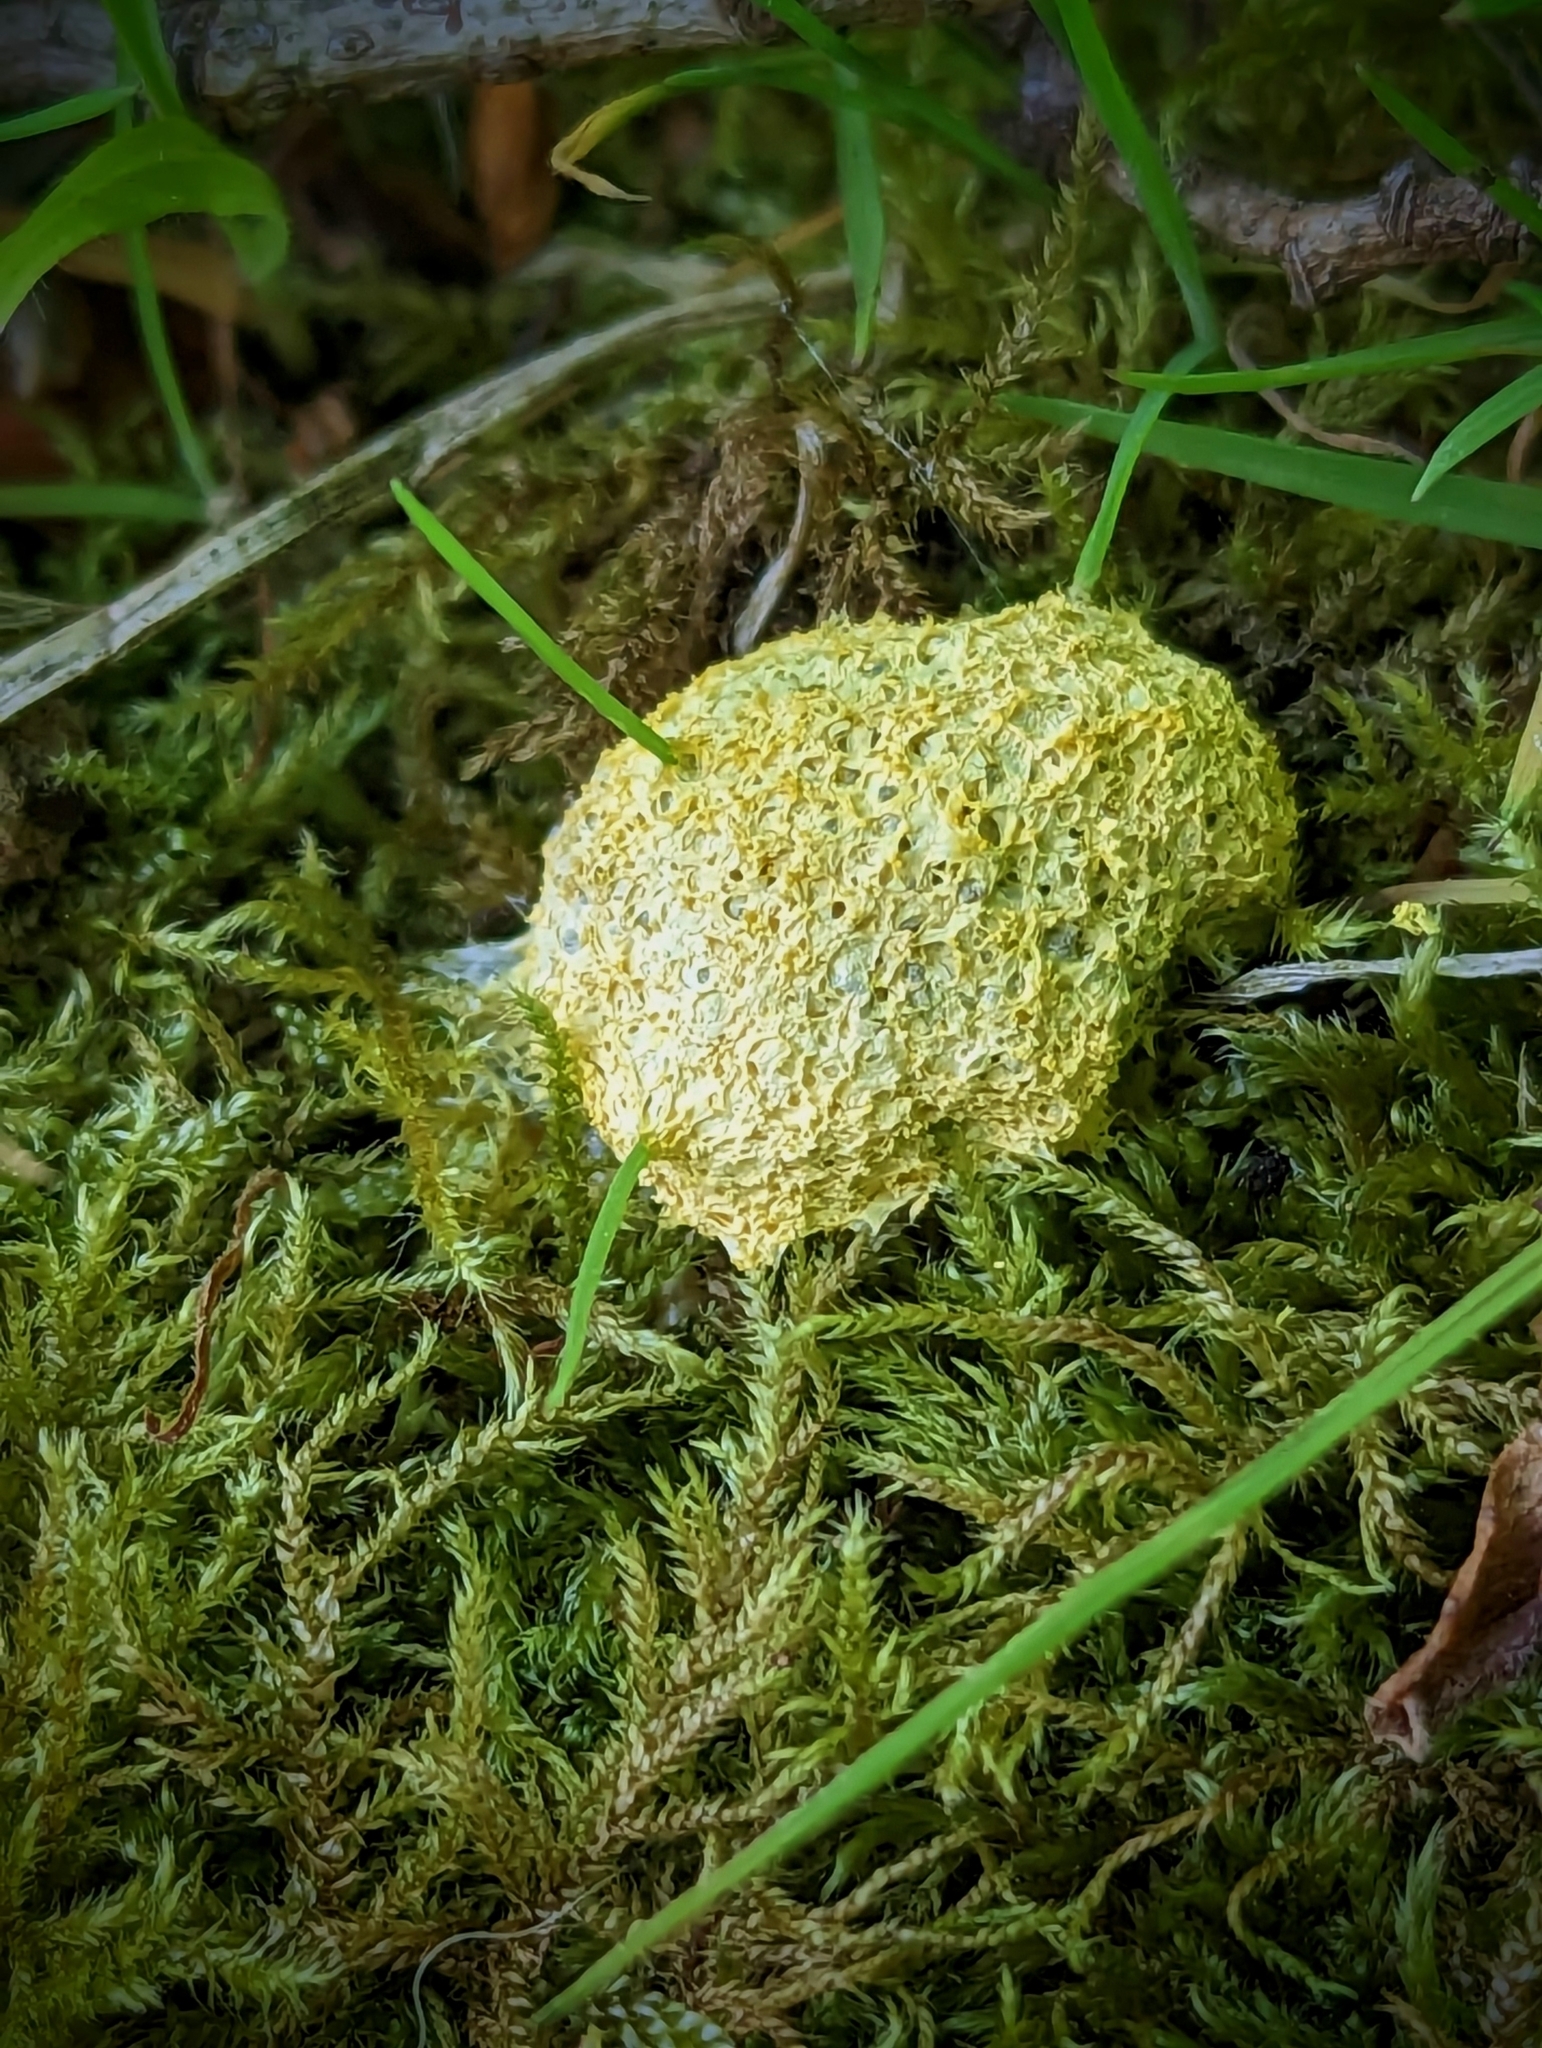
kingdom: Protozoa
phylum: Mycetozoa
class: Myxomycetes
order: Physarales
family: Physaraceae
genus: Fuligo
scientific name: Fuligo septica
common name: Dog vomit slime mold
